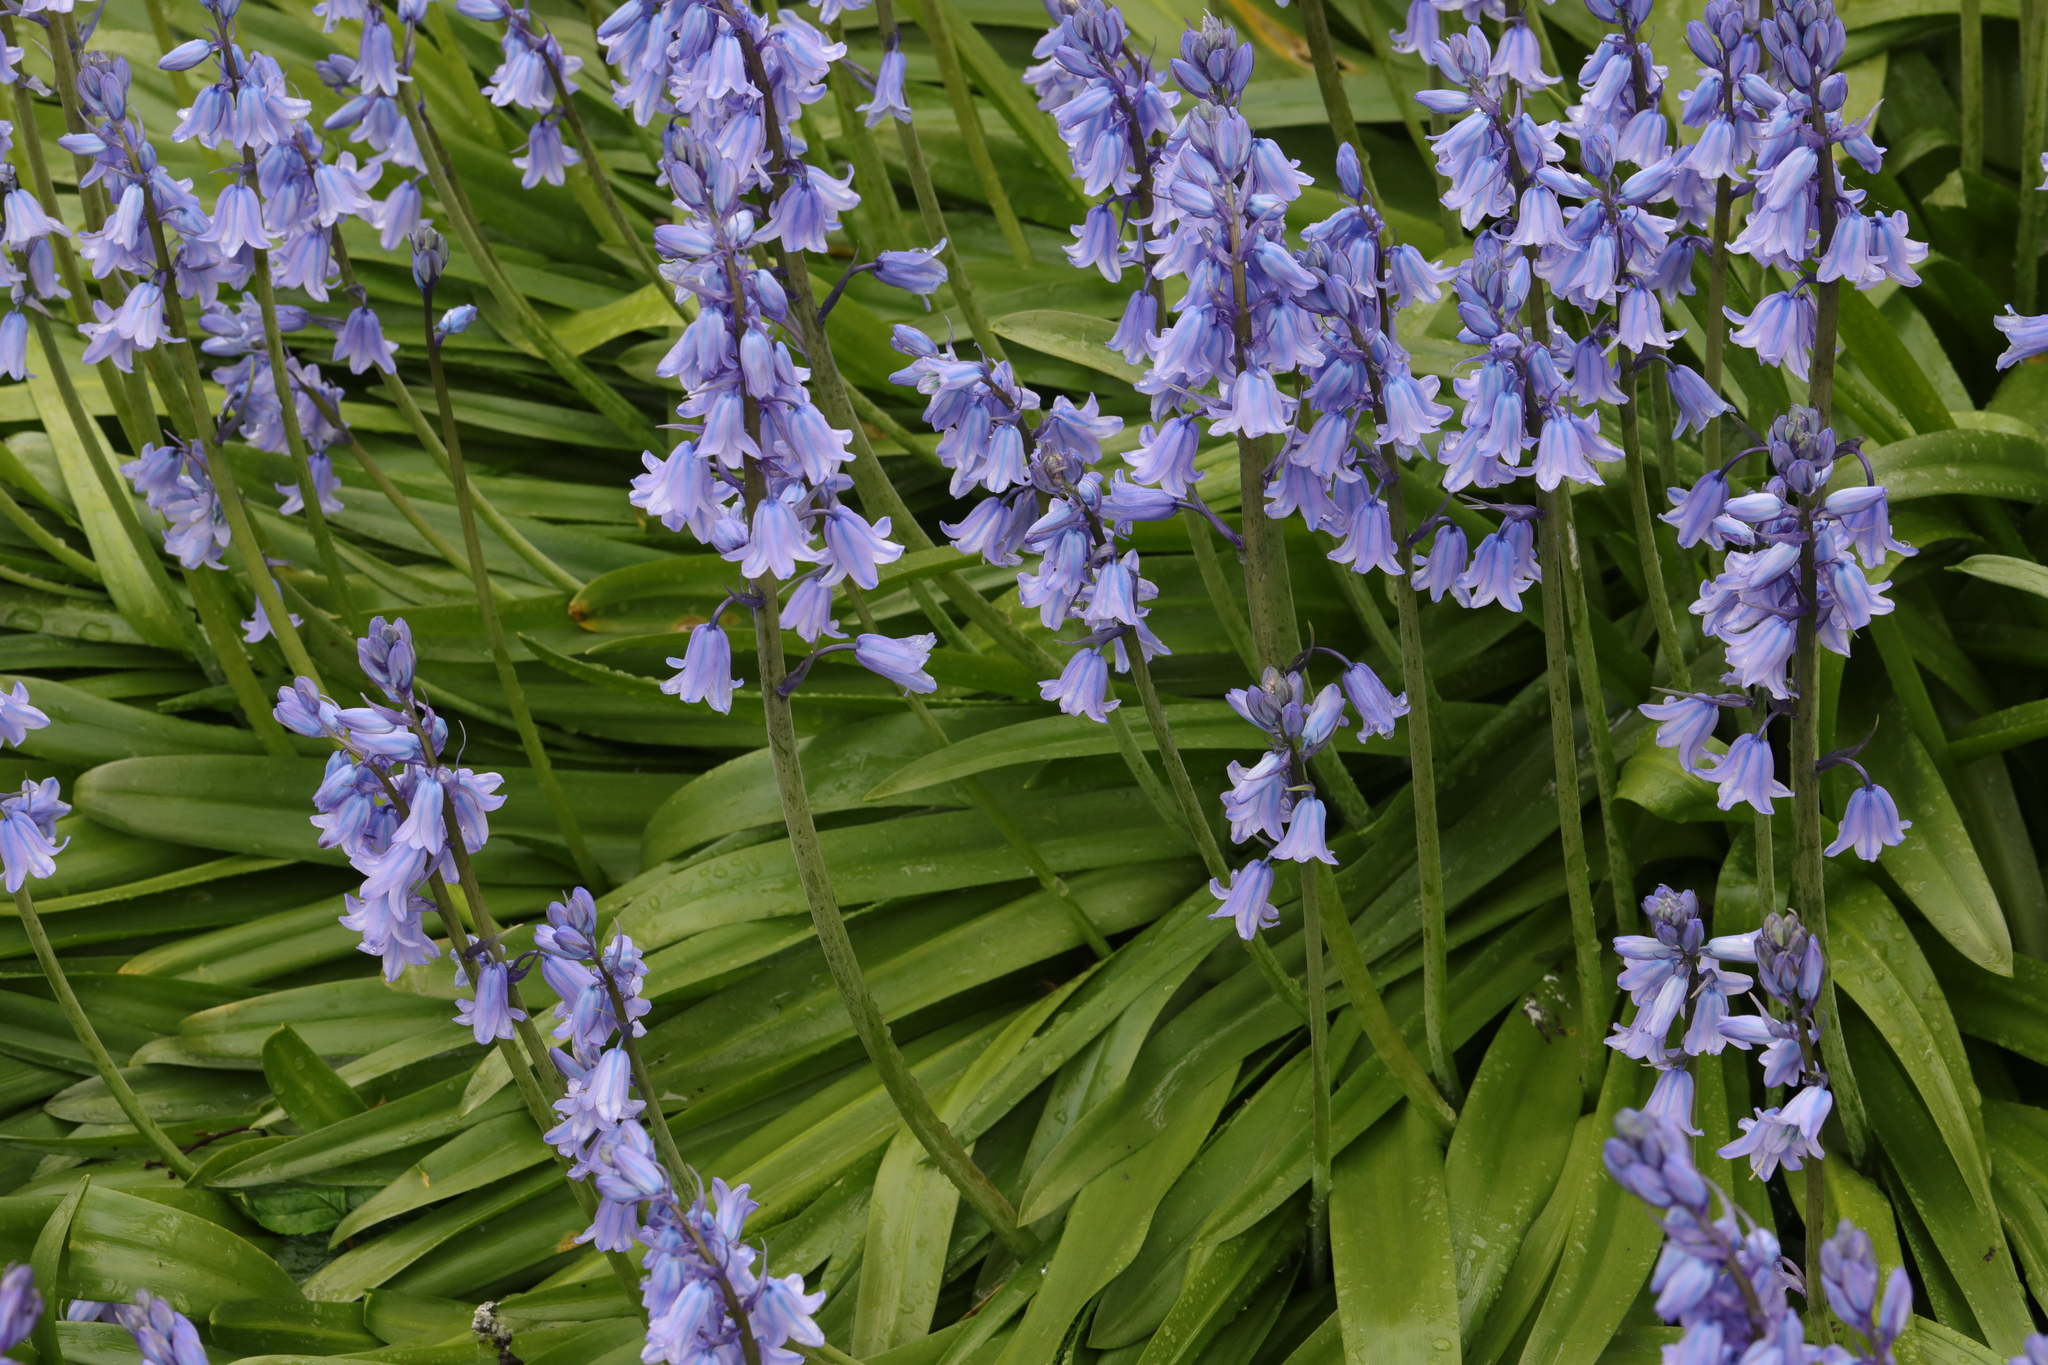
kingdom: Plantae
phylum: Tracheophyta
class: Liliopsida
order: Asparagales
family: Asparagaceae
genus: Hyacinthoides
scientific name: Hyacinthoides hispanica
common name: Spanish bluebell
